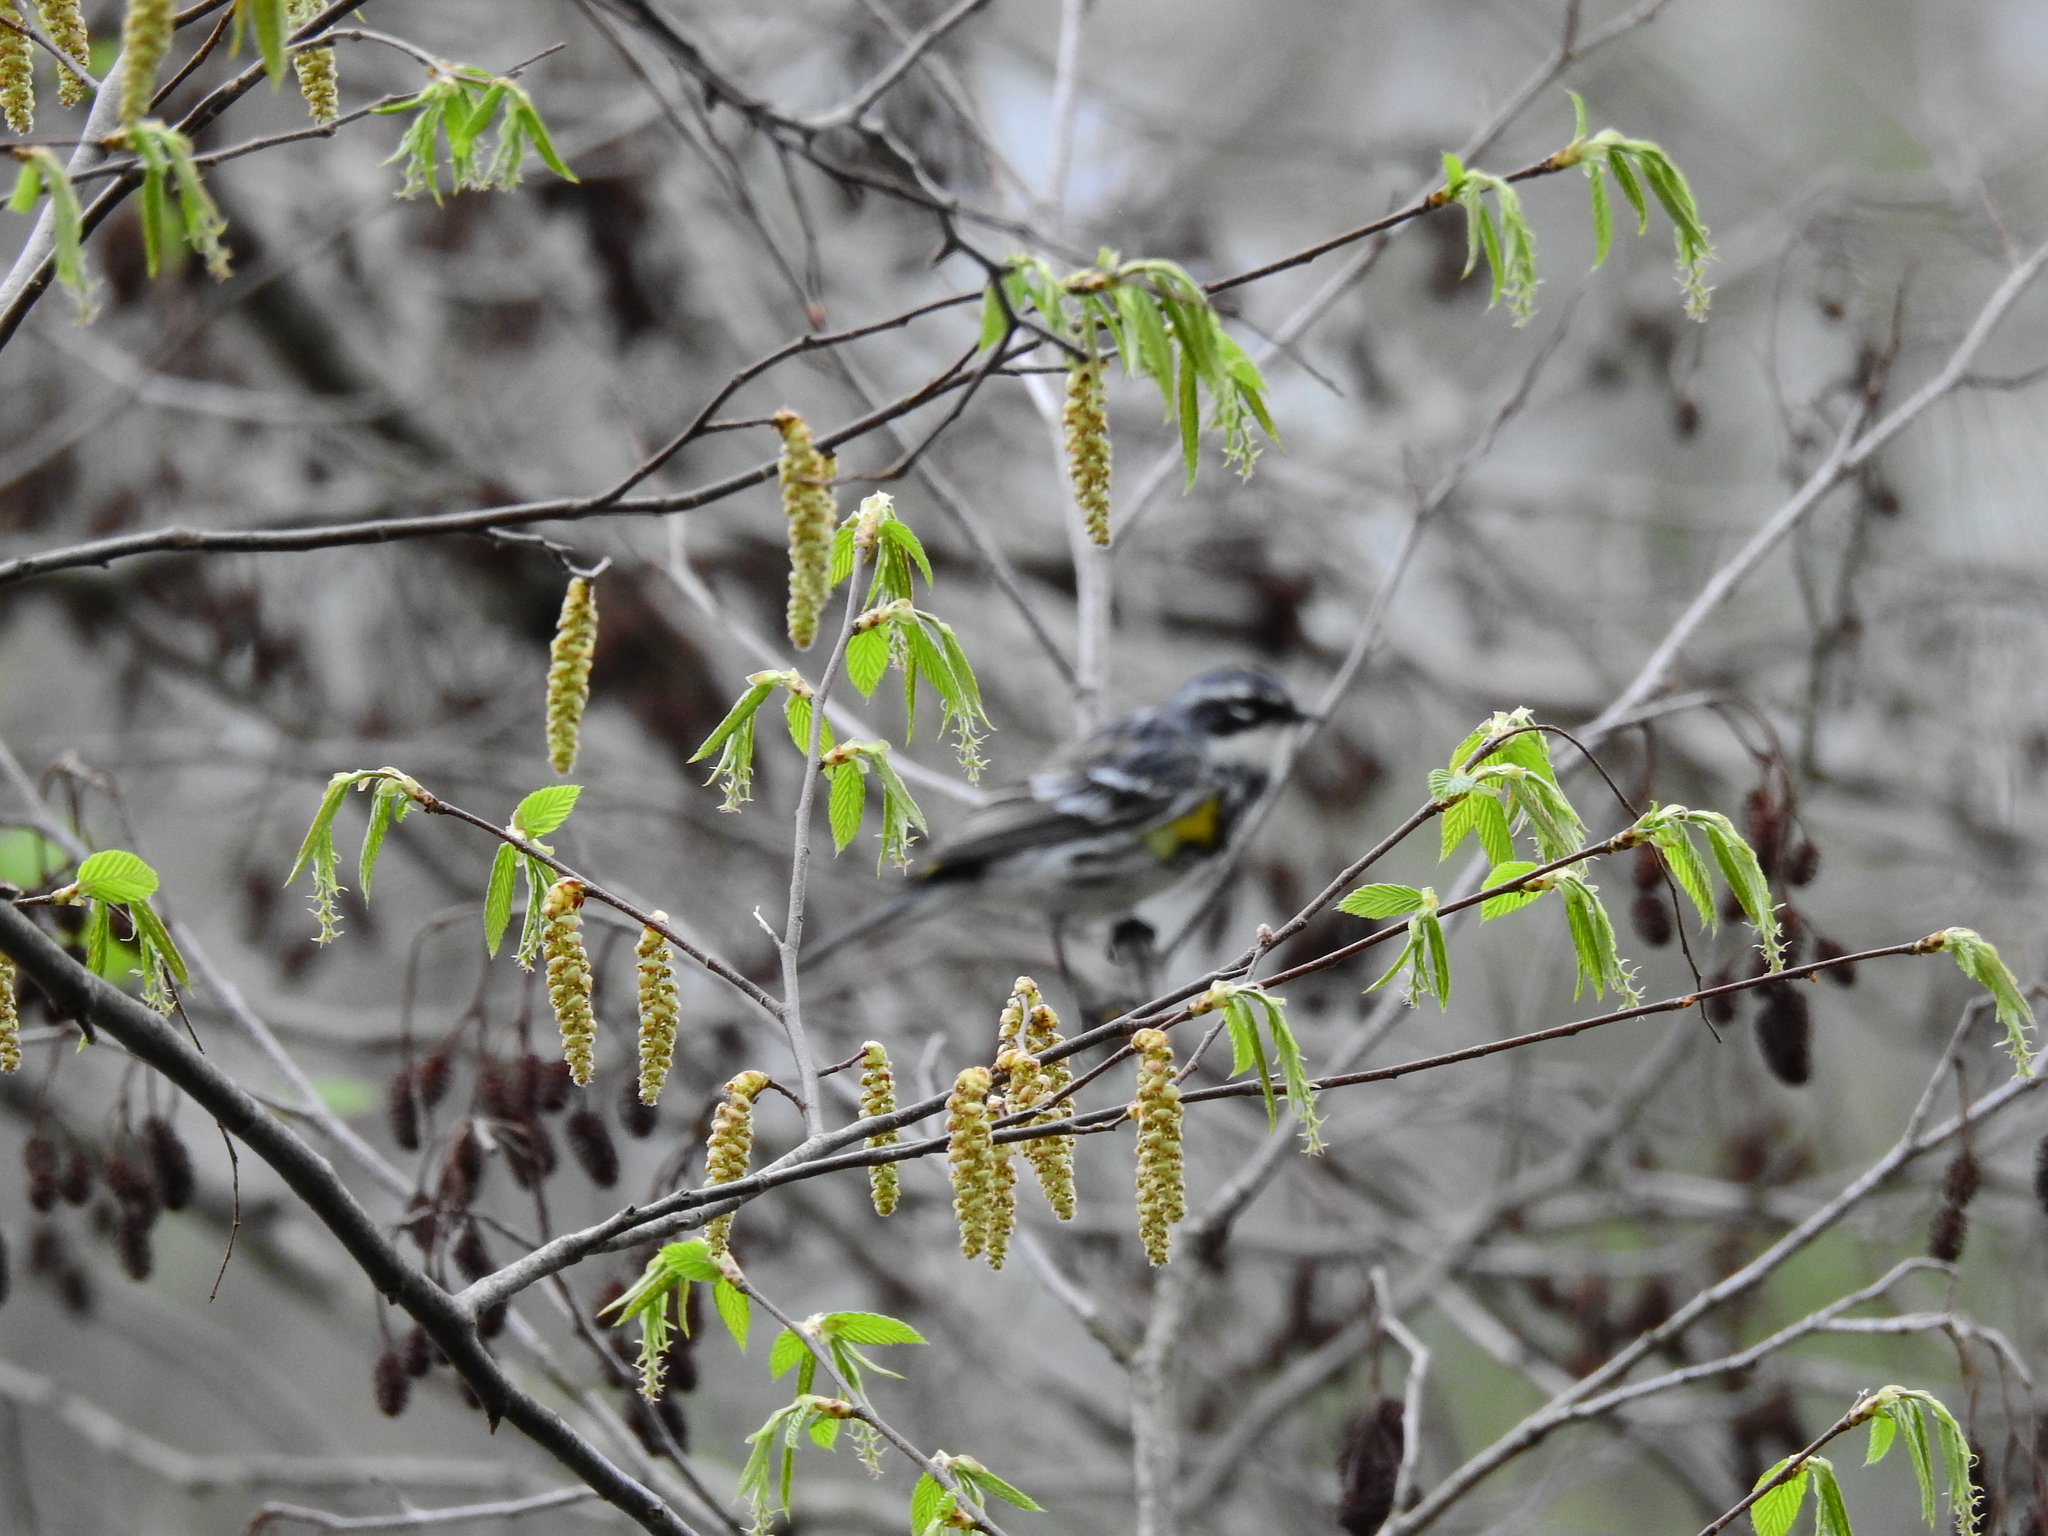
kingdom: Animalia
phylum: Chordata
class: Aves
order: Passeriformes
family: Parulidae
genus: Setophaga
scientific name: Setophaga coronata
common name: Myrtle warbler
